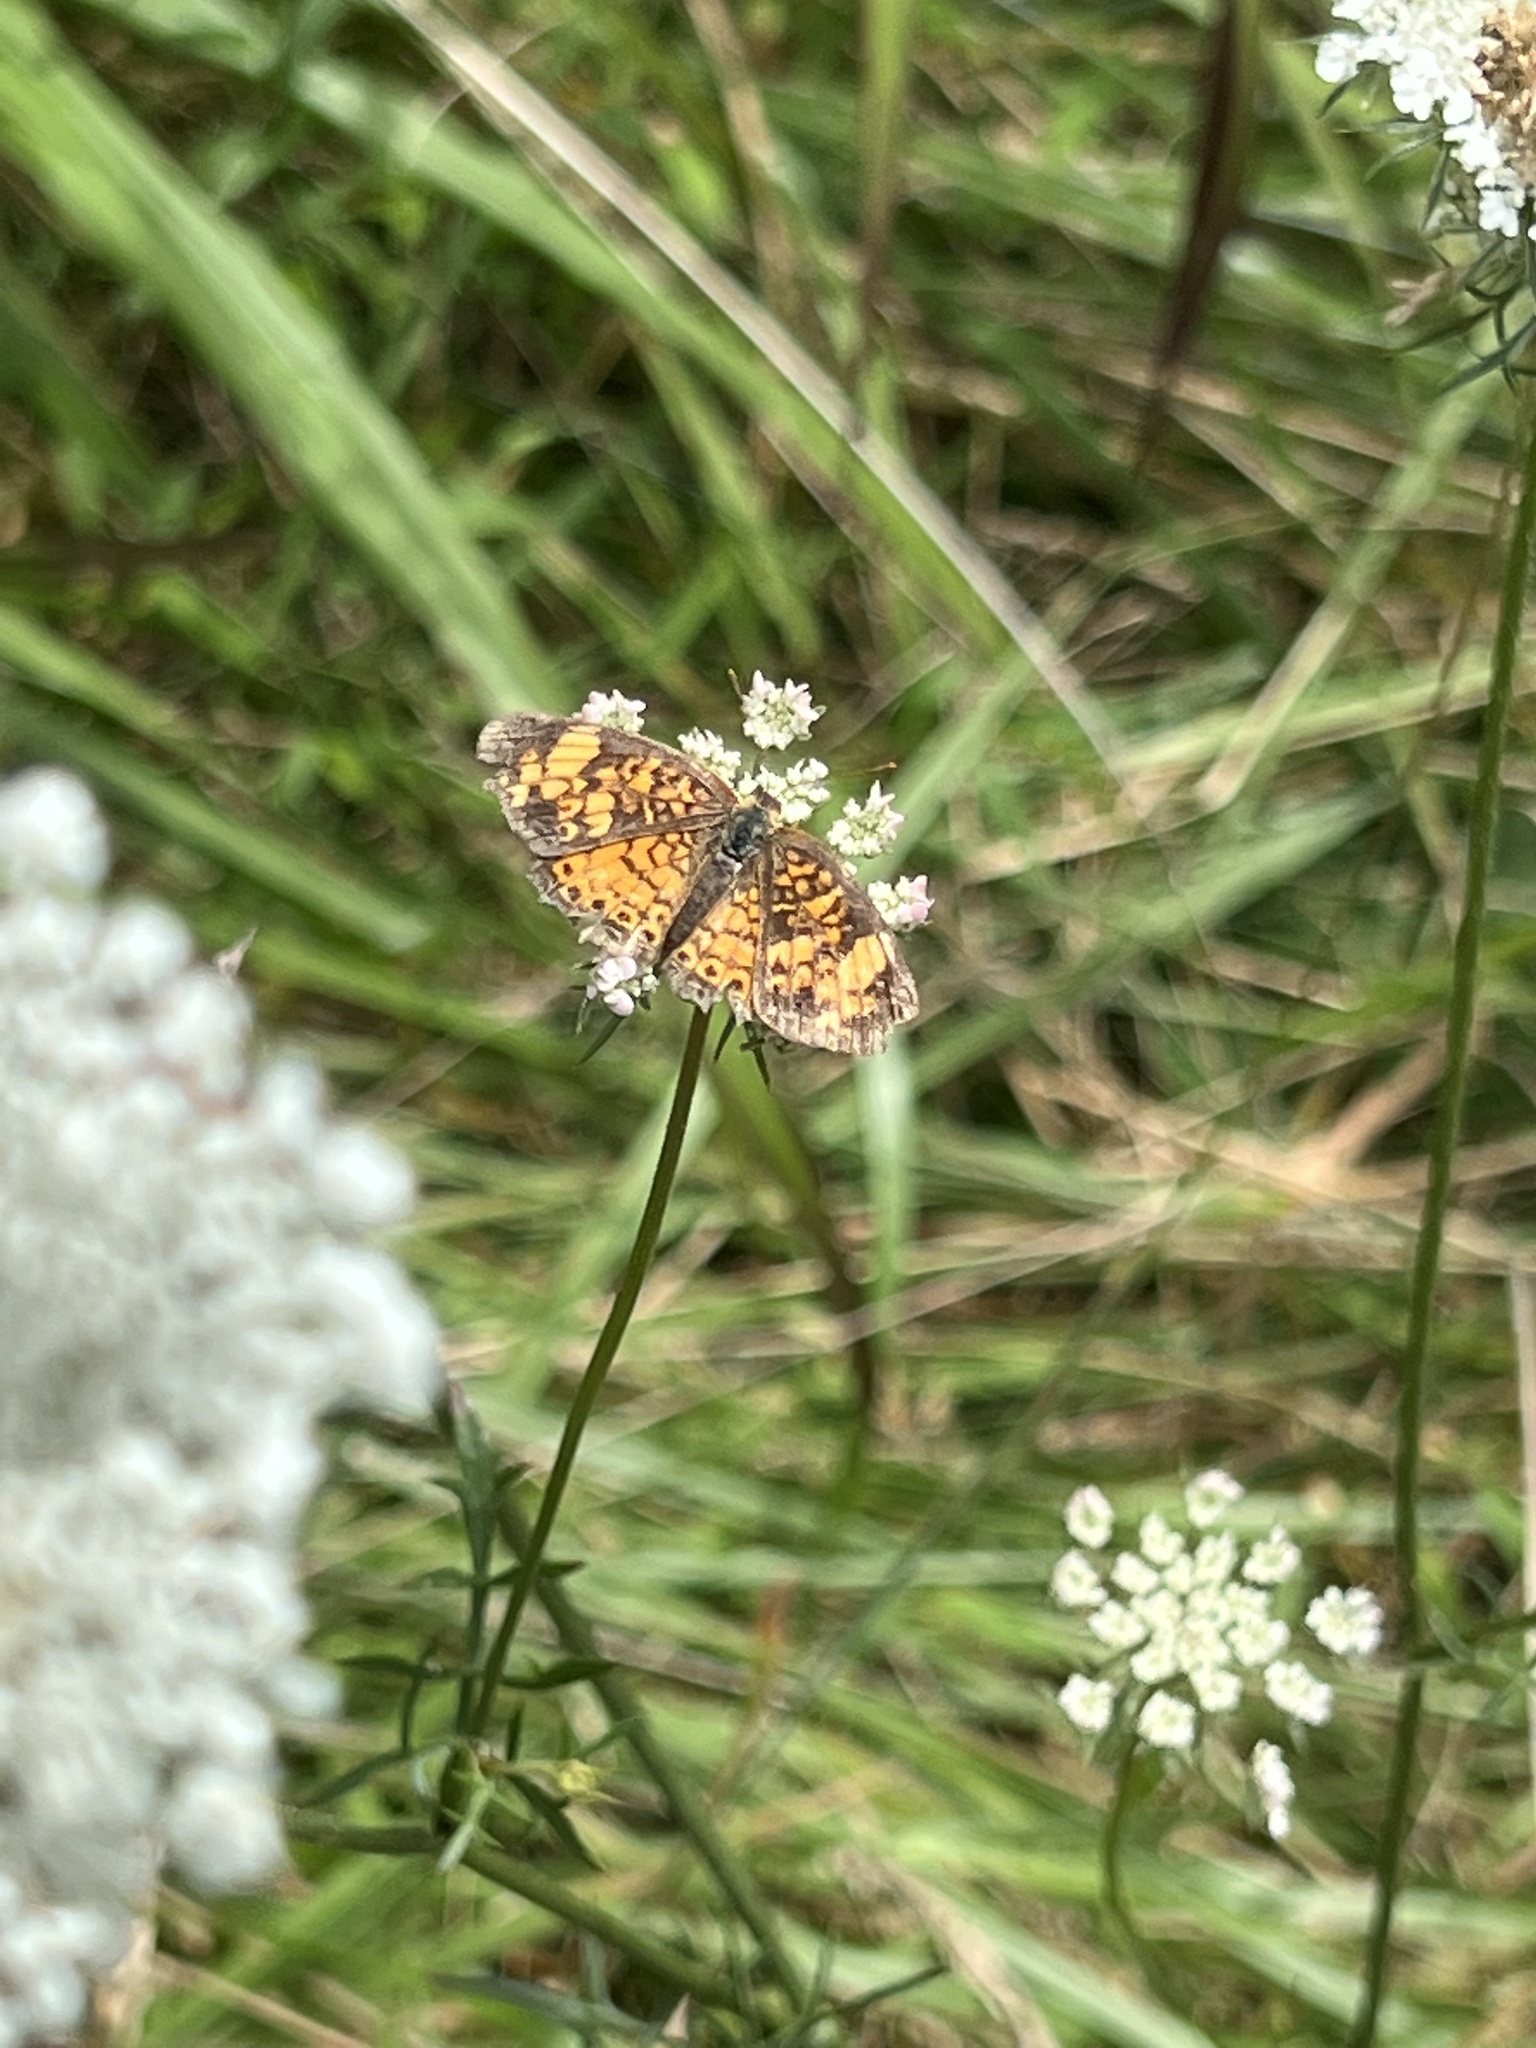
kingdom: Animalia
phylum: Arthropoda
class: Insecta
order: Lepidoptera
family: Nymphalidae
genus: Phyciodes
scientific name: Phyciodes tharos
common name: Pearl crescent
